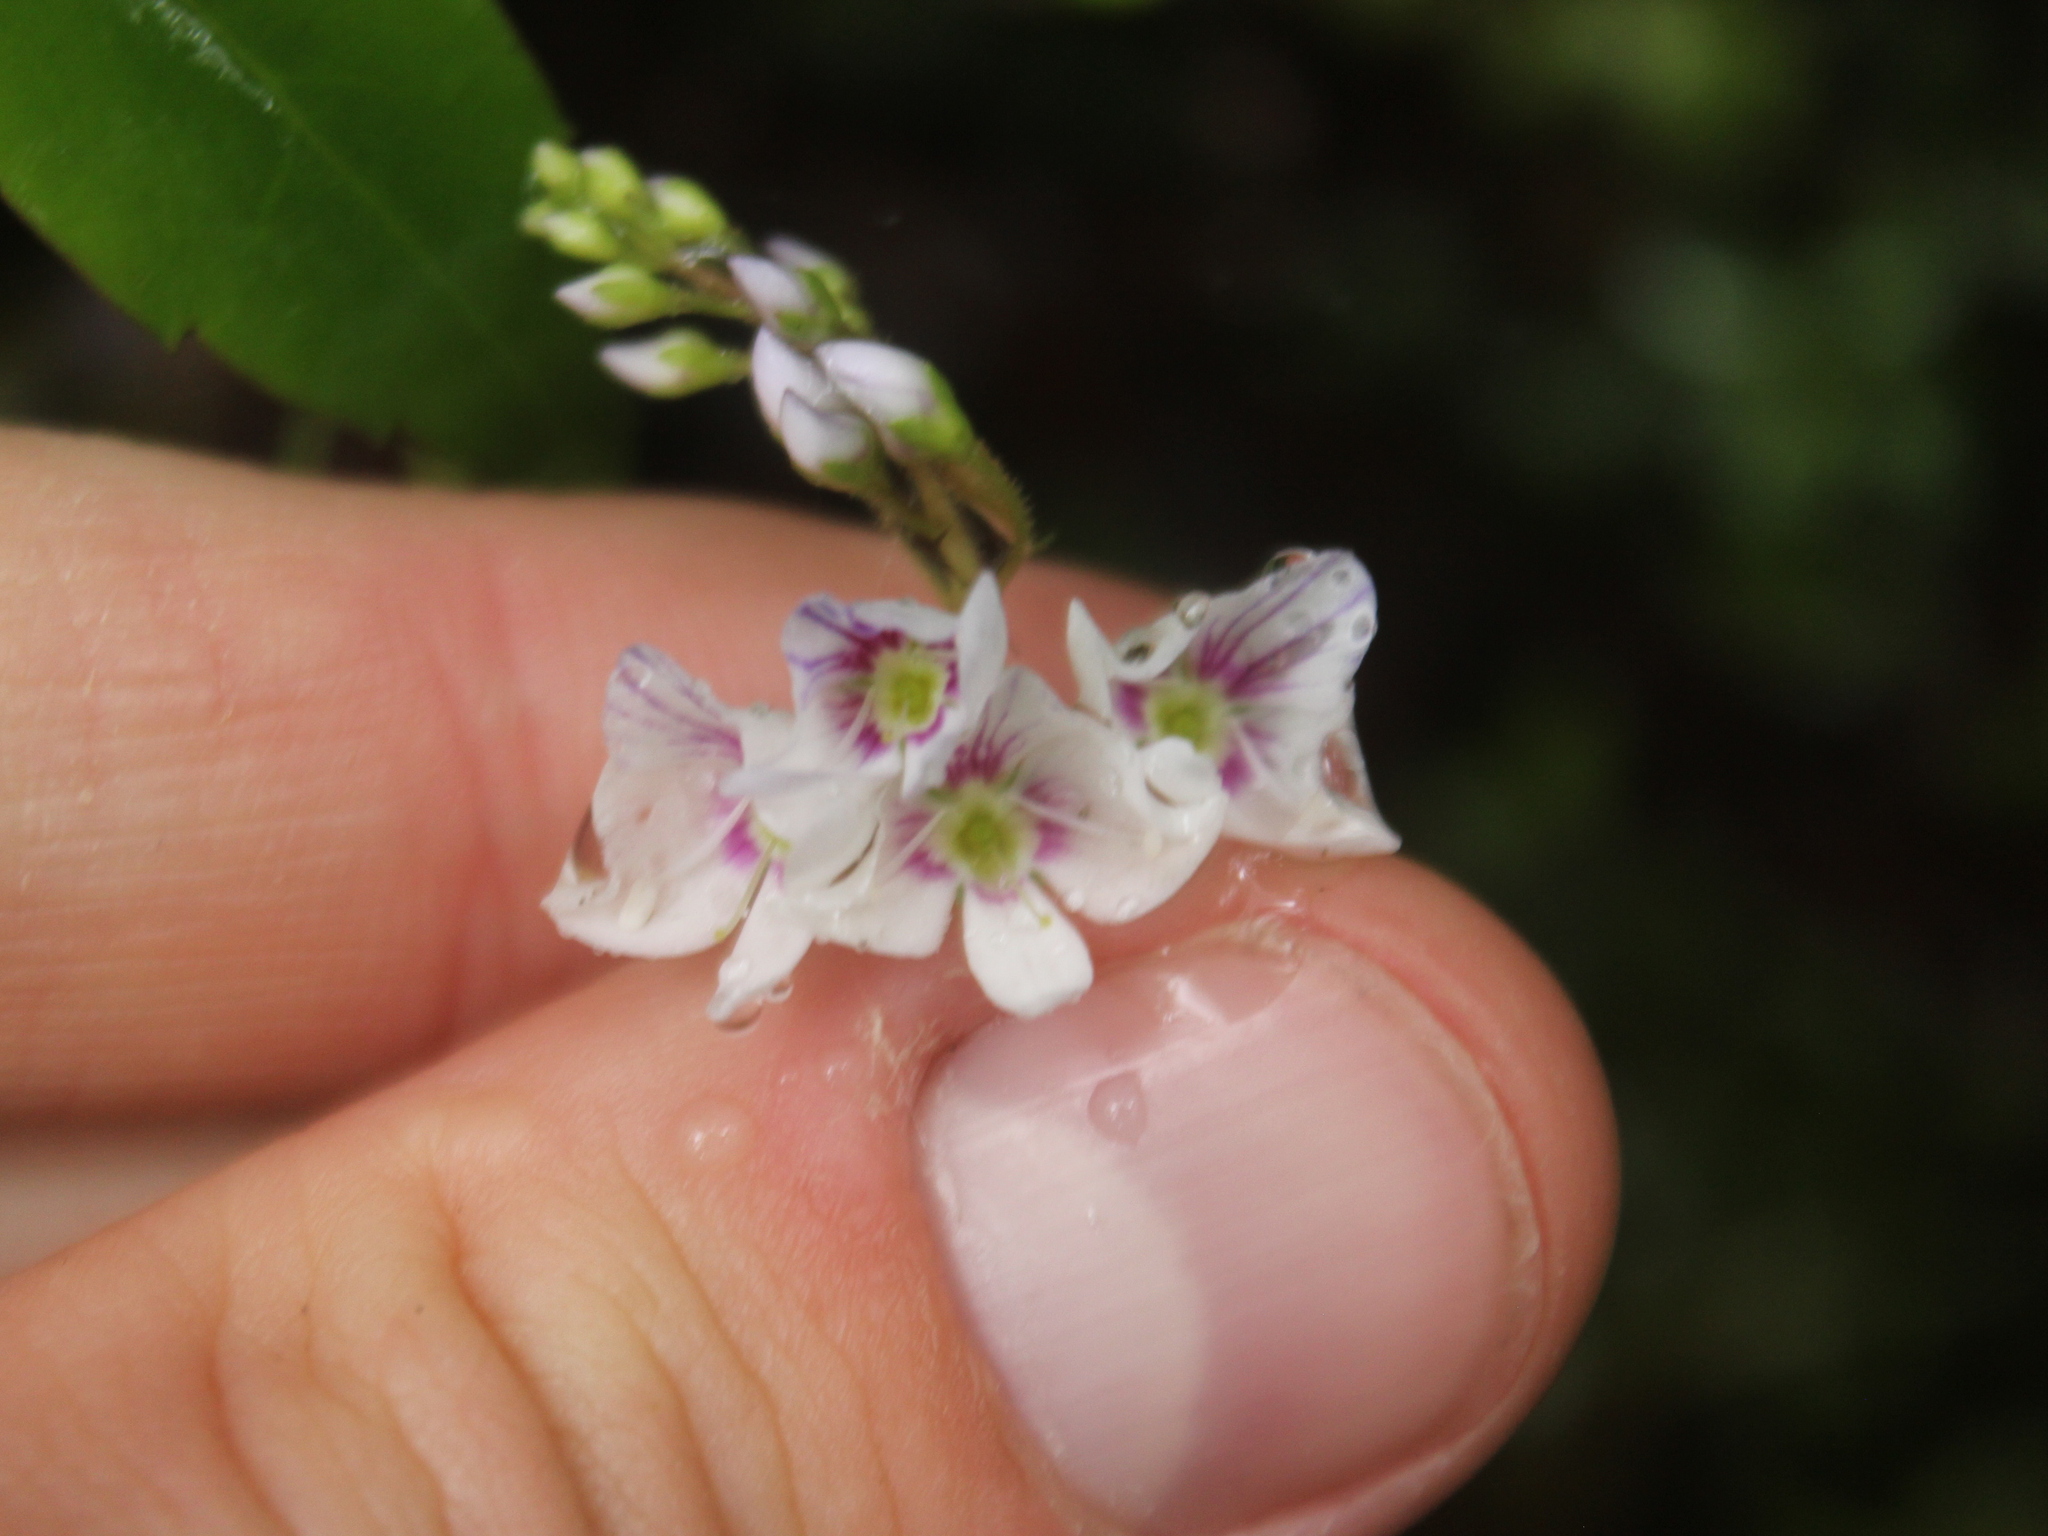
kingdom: Plantae
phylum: Tracheophyta
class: Magnoliopsida
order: Lamiales
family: Plantaginaceae
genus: Veronica
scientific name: Veronica lanceolata
